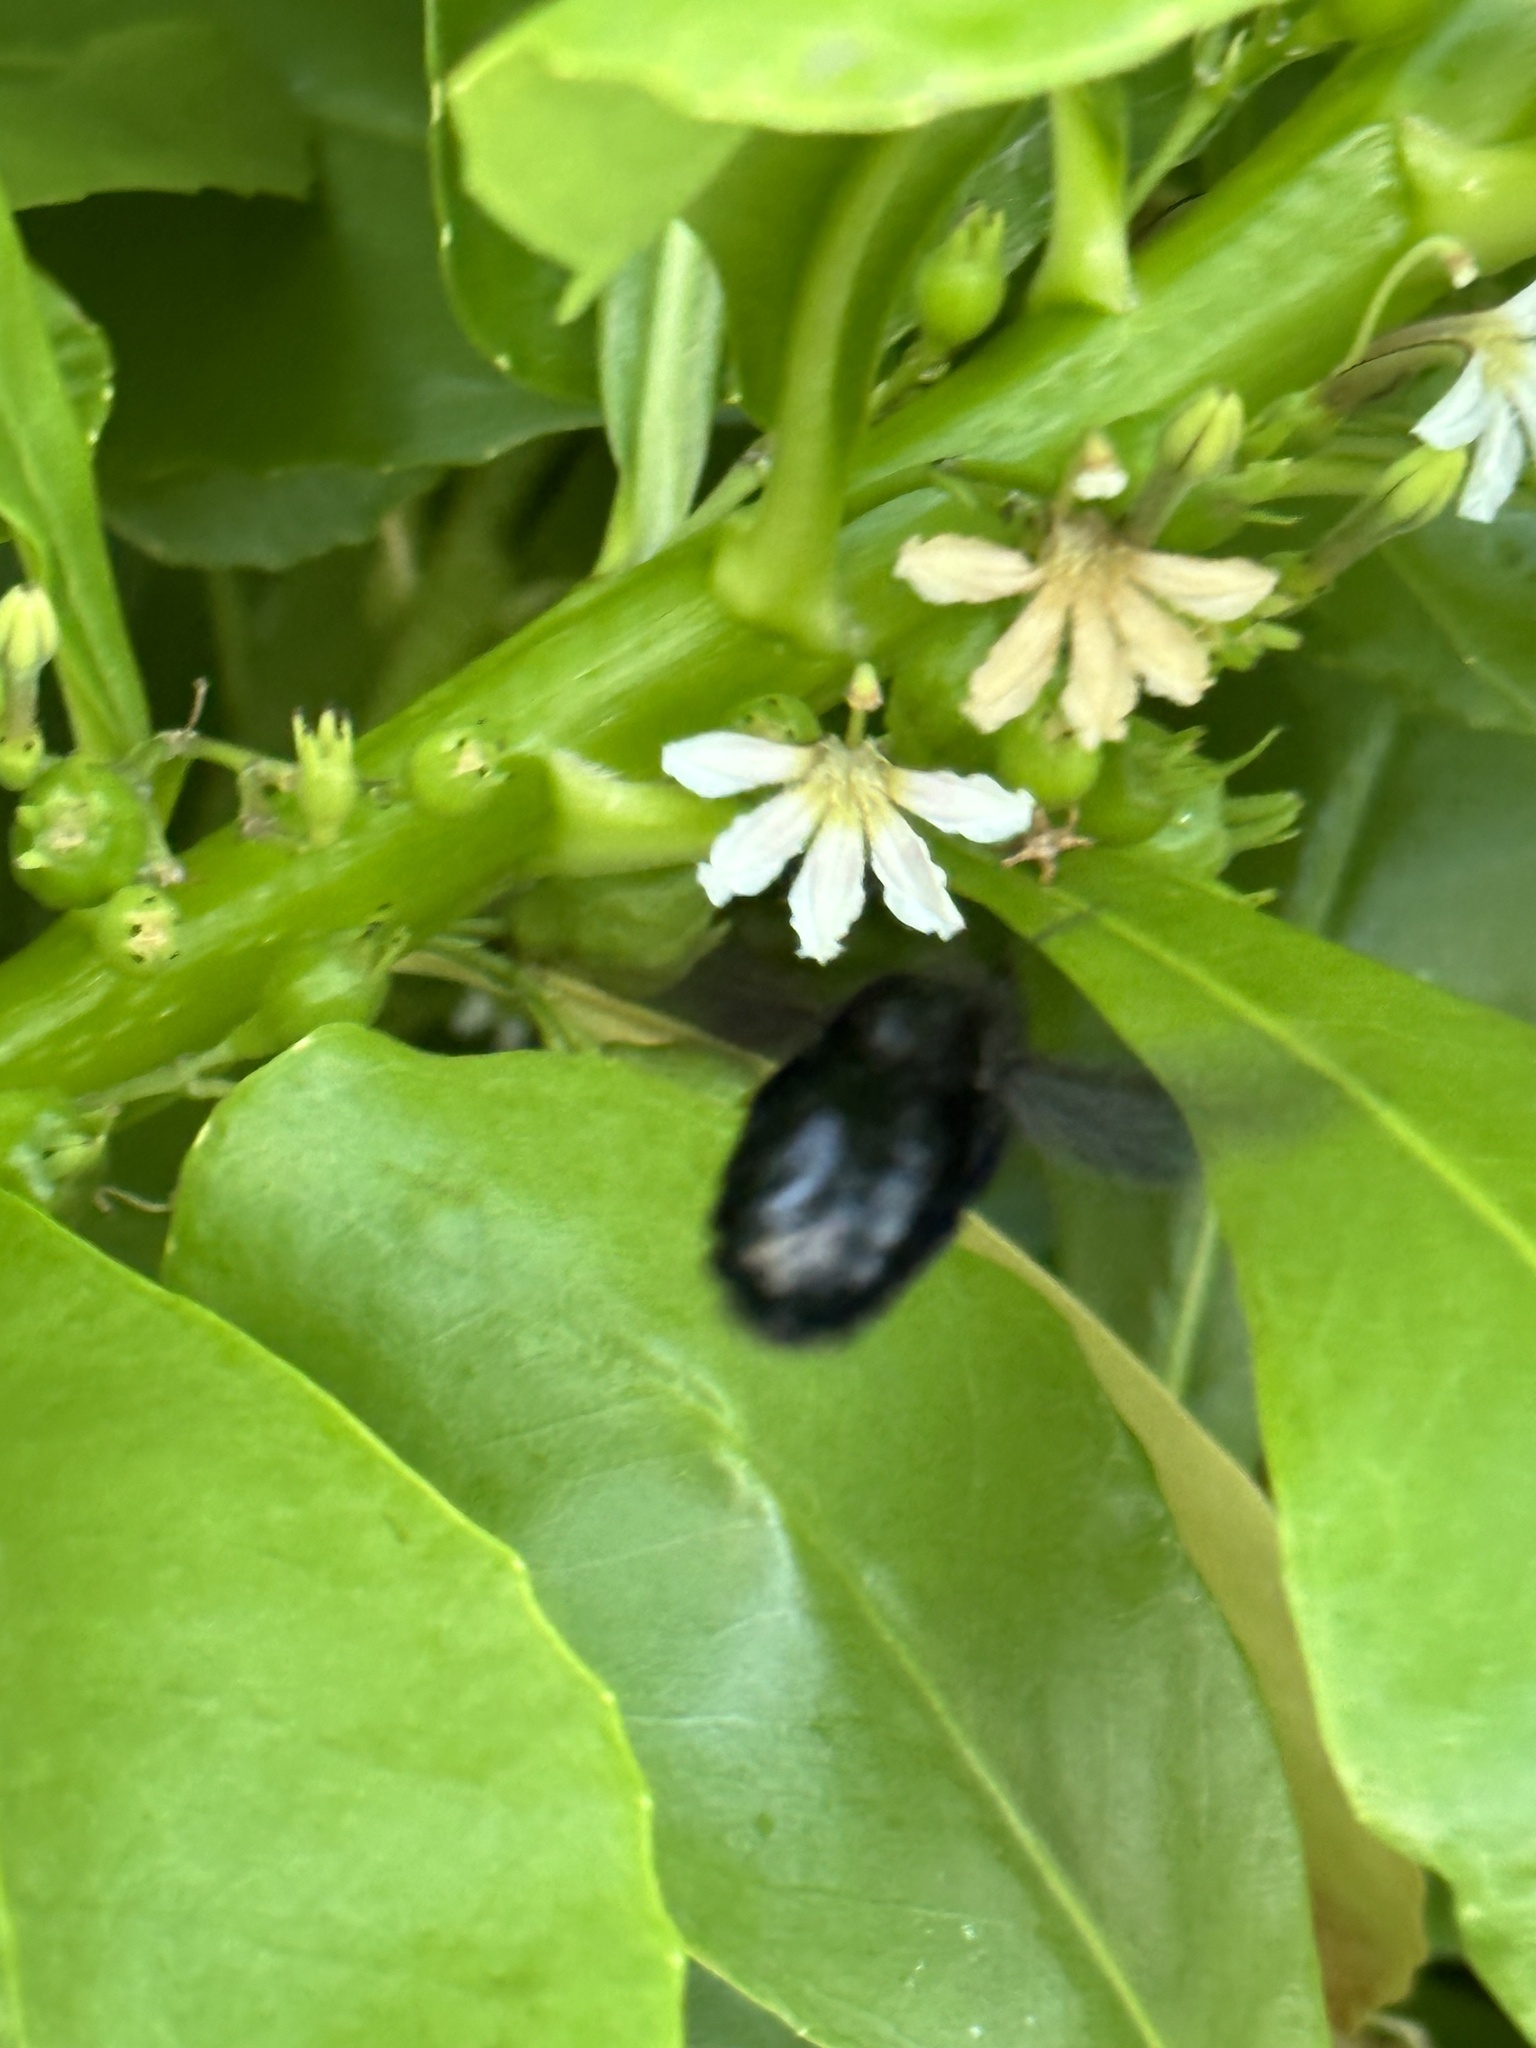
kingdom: Animalia
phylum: Arthropoda
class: Insecta
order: Hymenoptera
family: Apidae
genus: Xylocopa
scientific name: Xylocopa mordax
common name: Antillean carpenter bee
